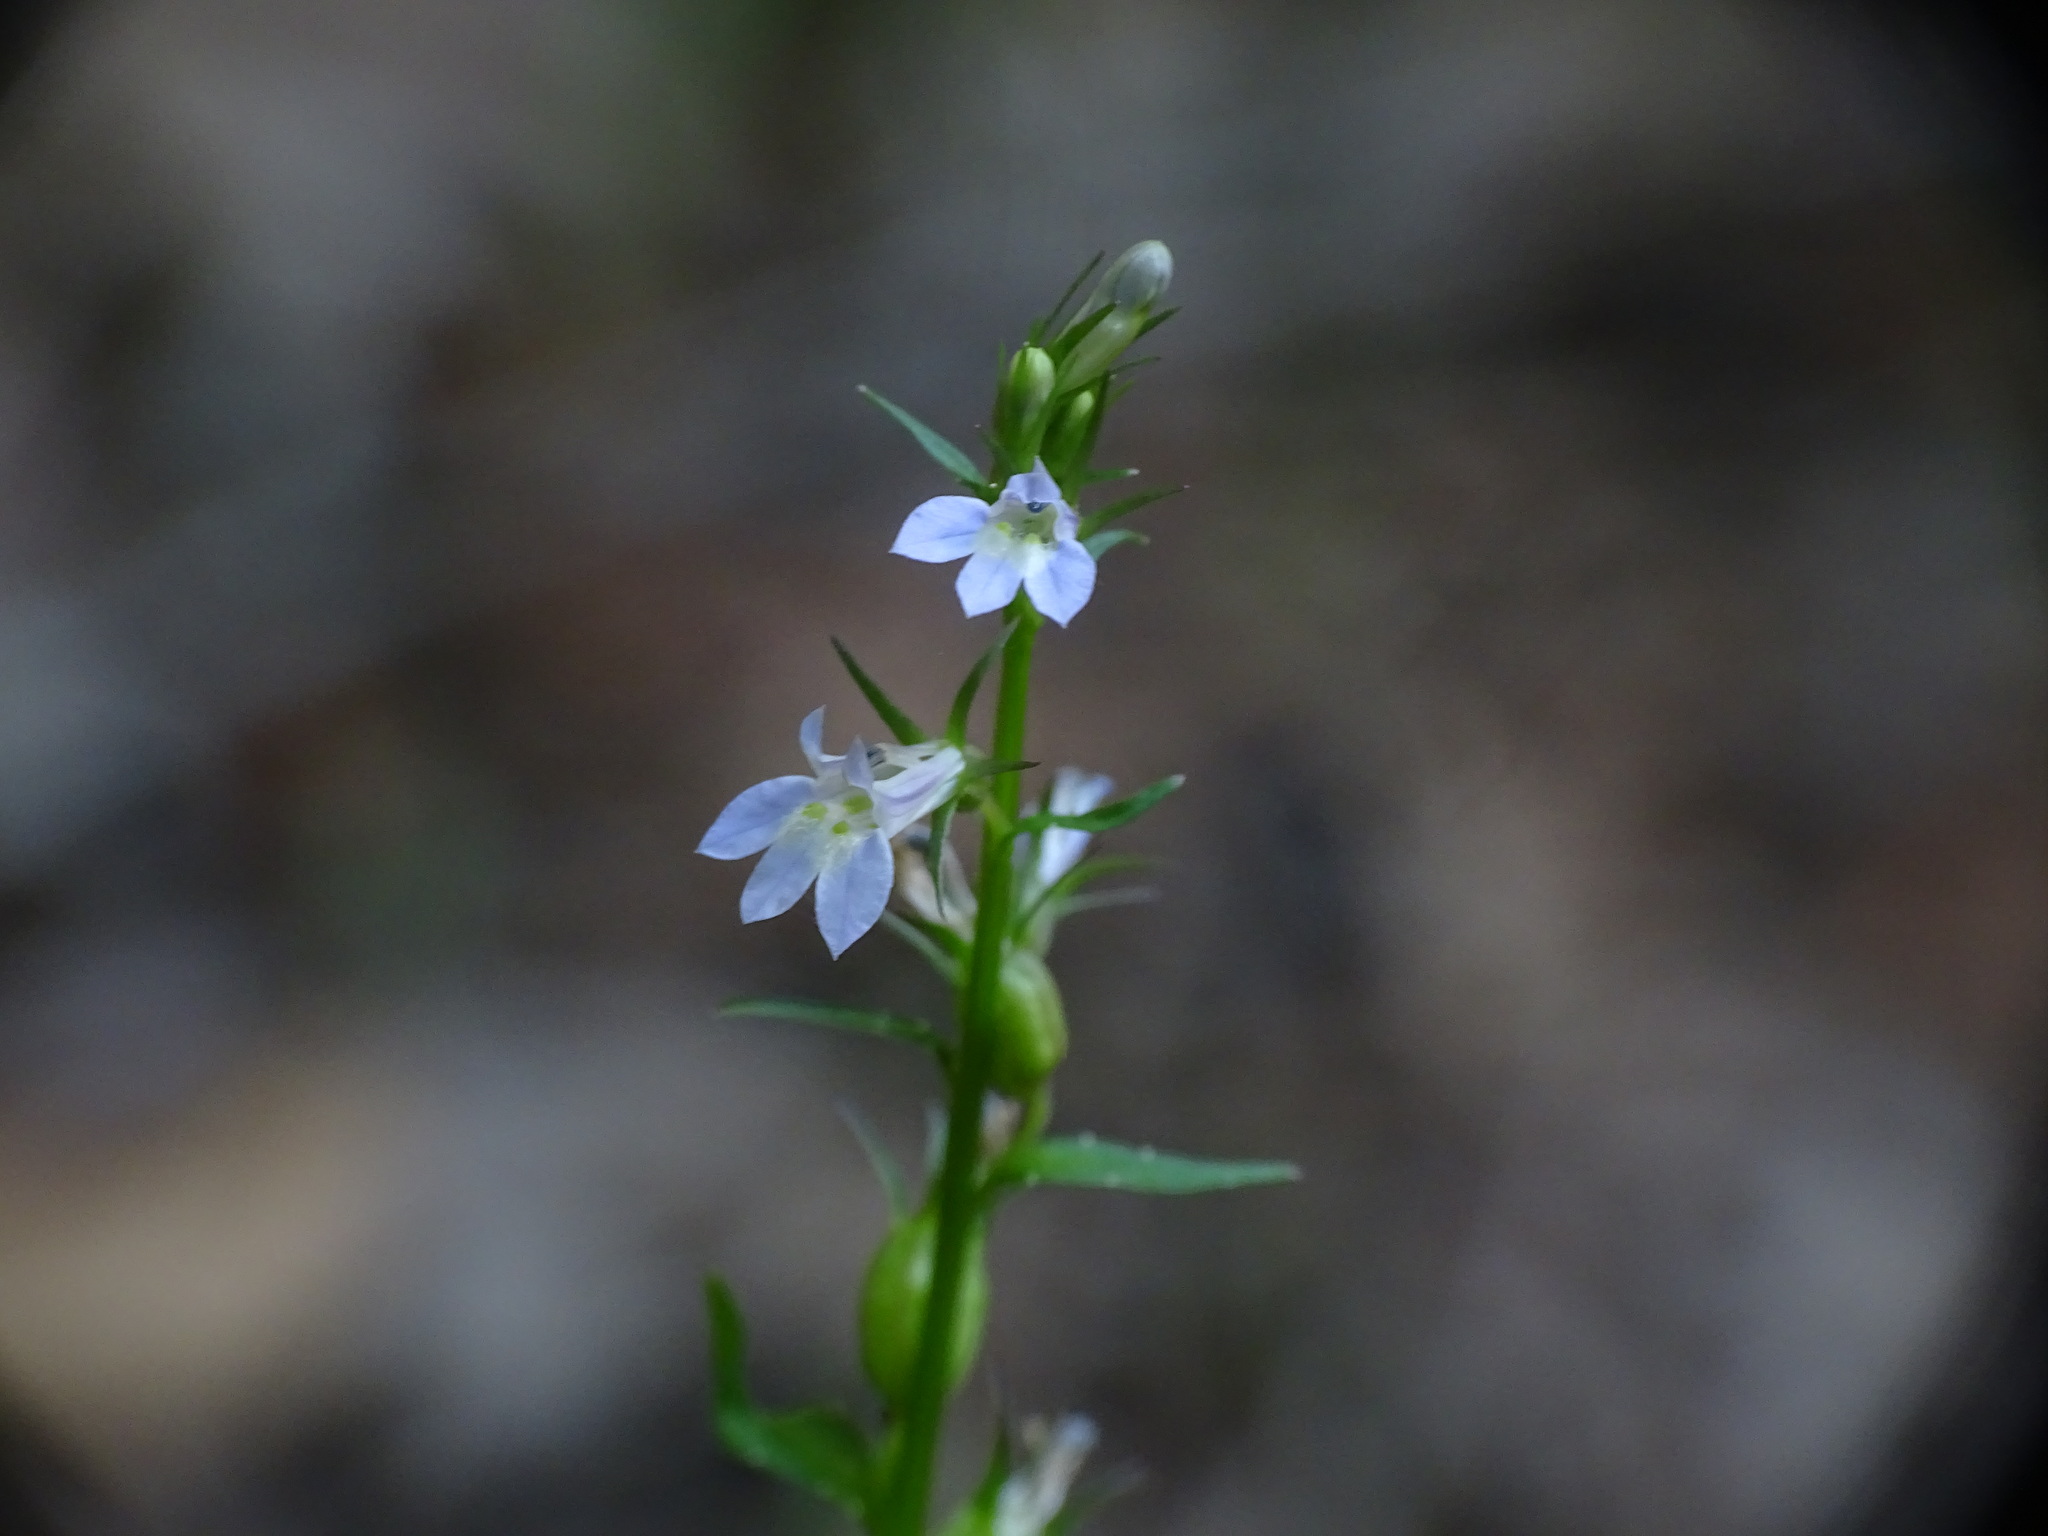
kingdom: Plantae
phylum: Tracheophyta
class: Magnoliopsida
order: Asterales
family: Campanulaceae
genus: Lobelia
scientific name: Lobelia inflata
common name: Indian tobacco
